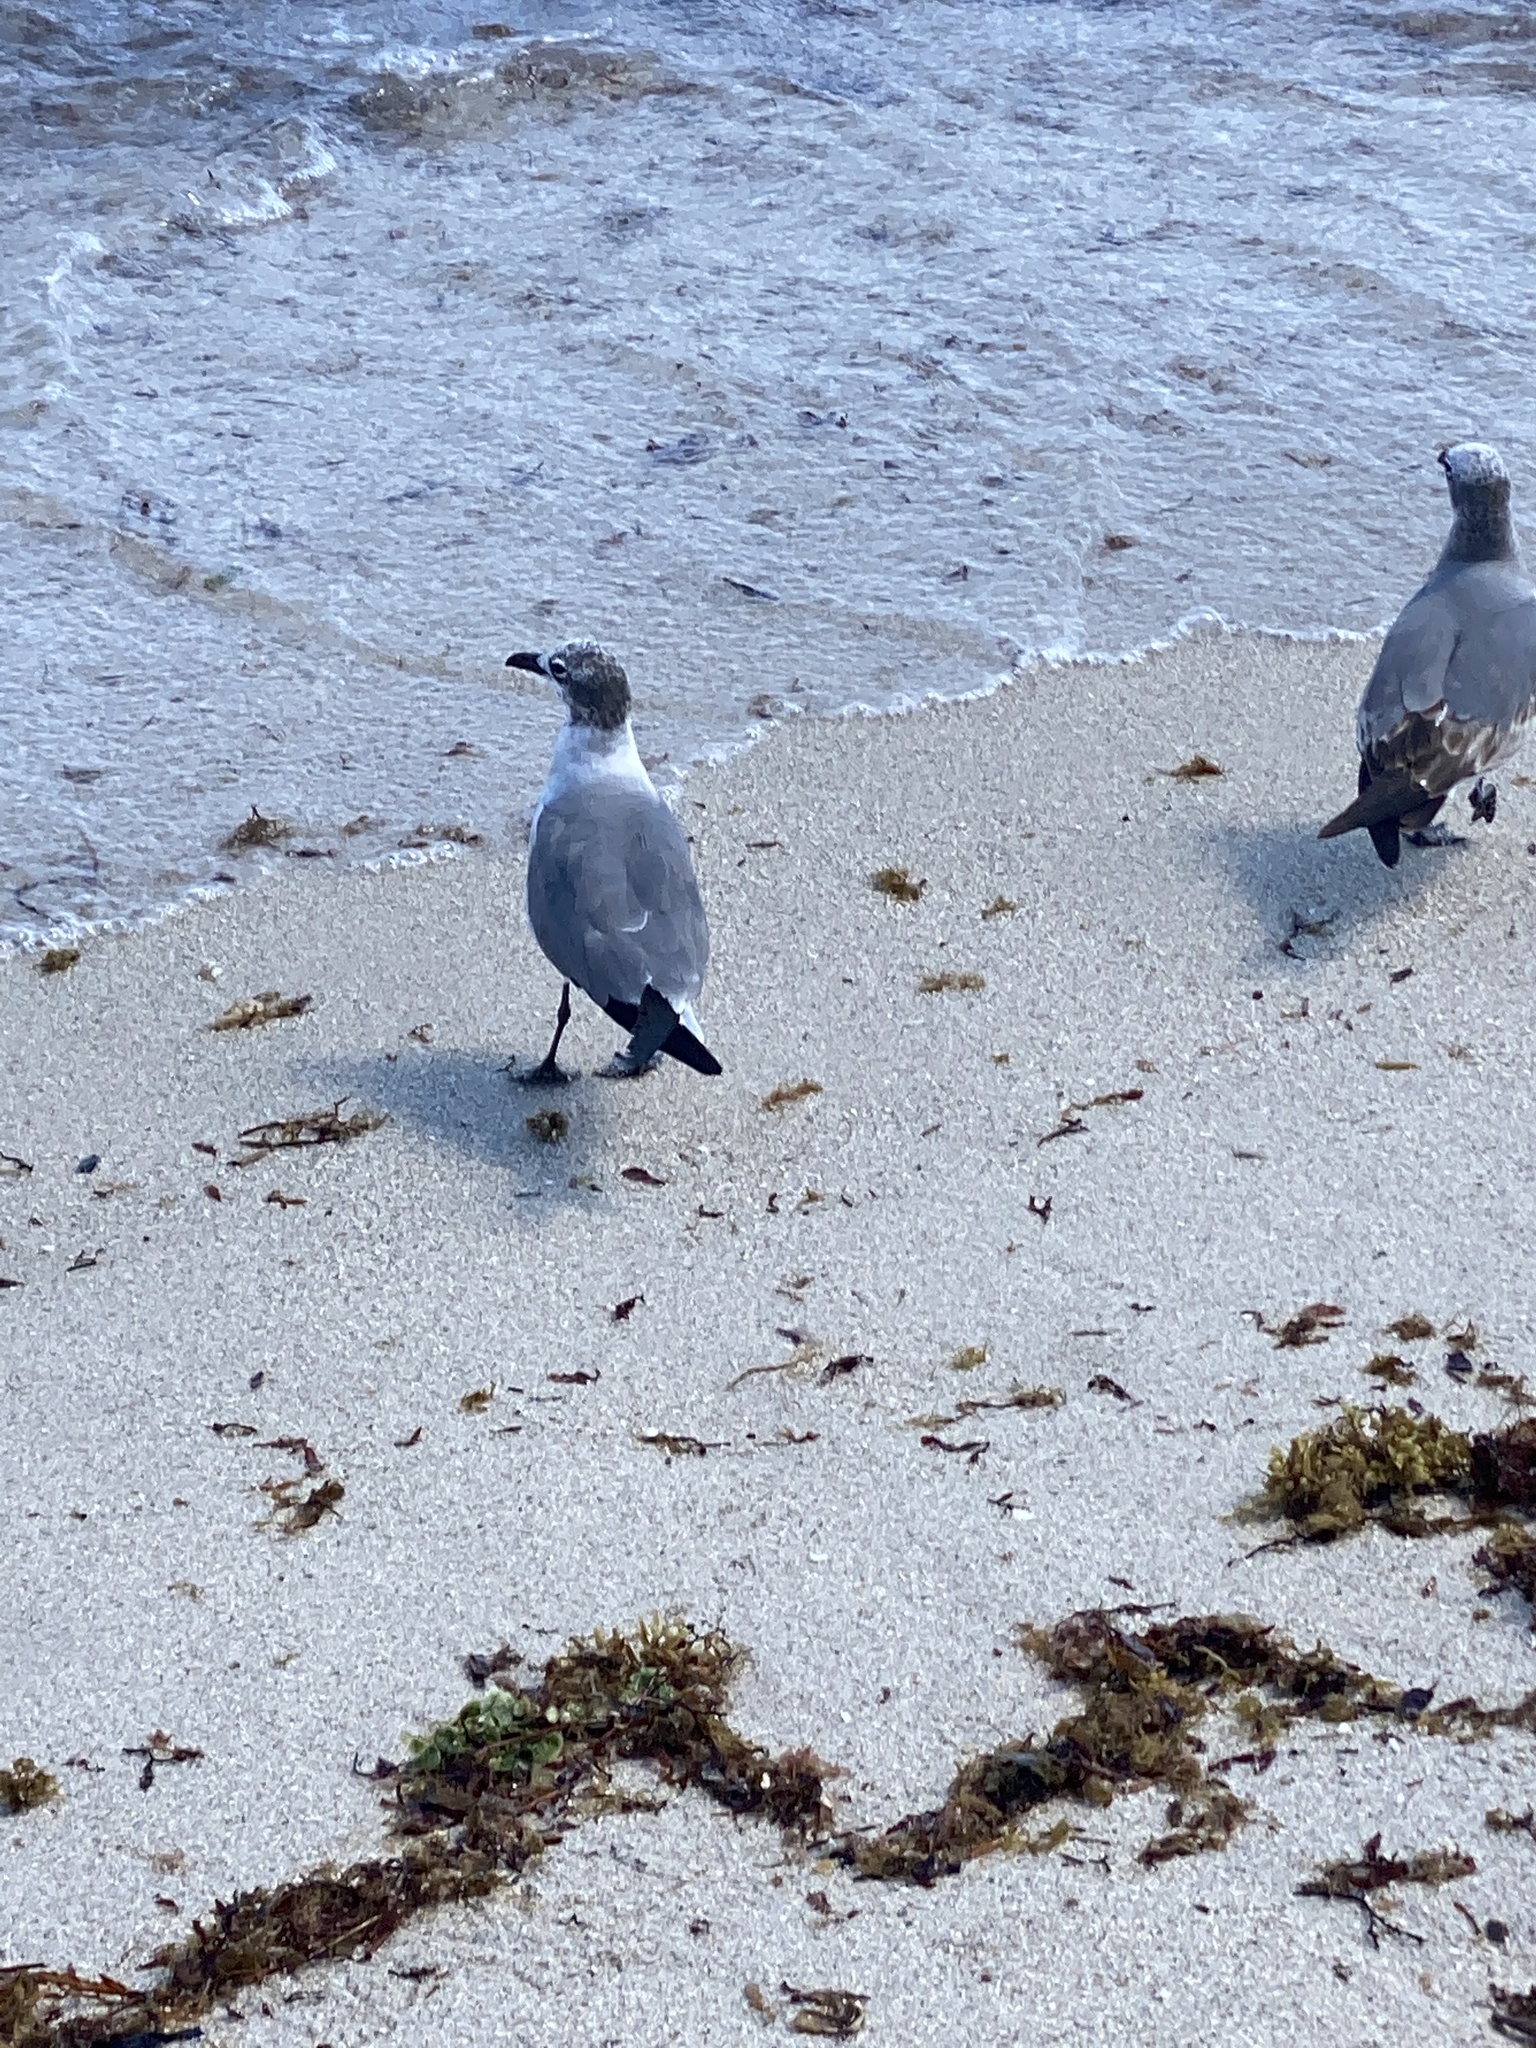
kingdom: Animalia
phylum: Chordata
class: Aves
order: Charadriiformes
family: Laridae
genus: Leucophaeus
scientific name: Leucophaeus atricilla
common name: Laughing gull
